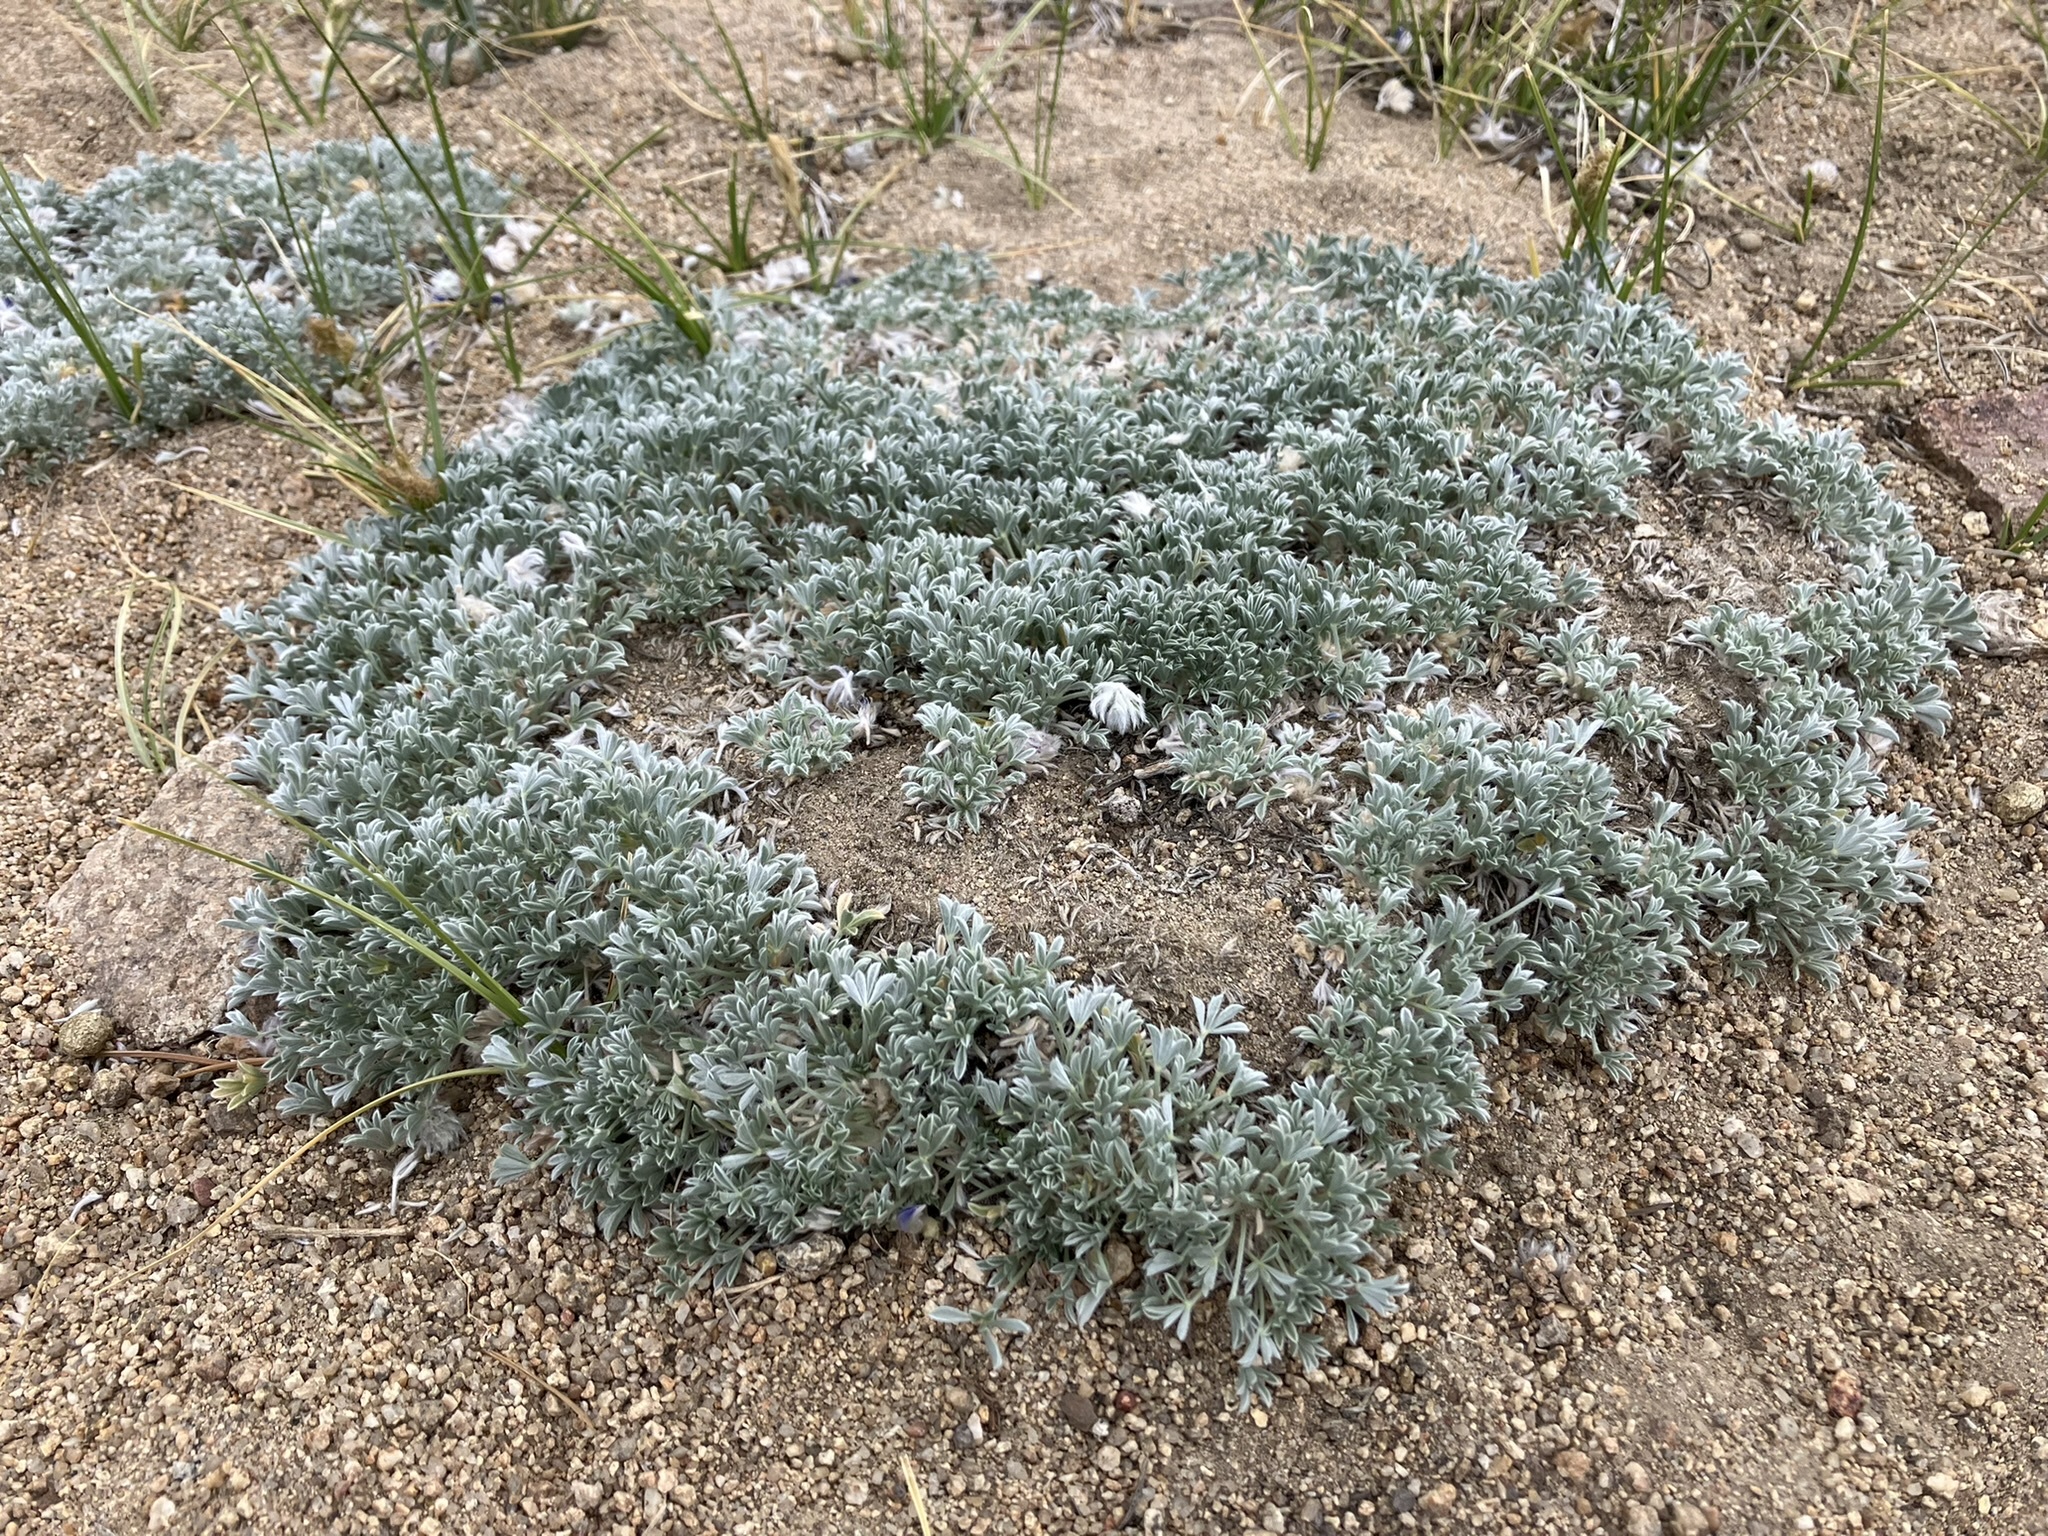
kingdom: Plantae
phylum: Tracheophyta
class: Magnoliopsida
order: Fabales
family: Fabaceae
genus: Lupinus
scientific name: Lupinus breweri
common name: Brewer's lupine
